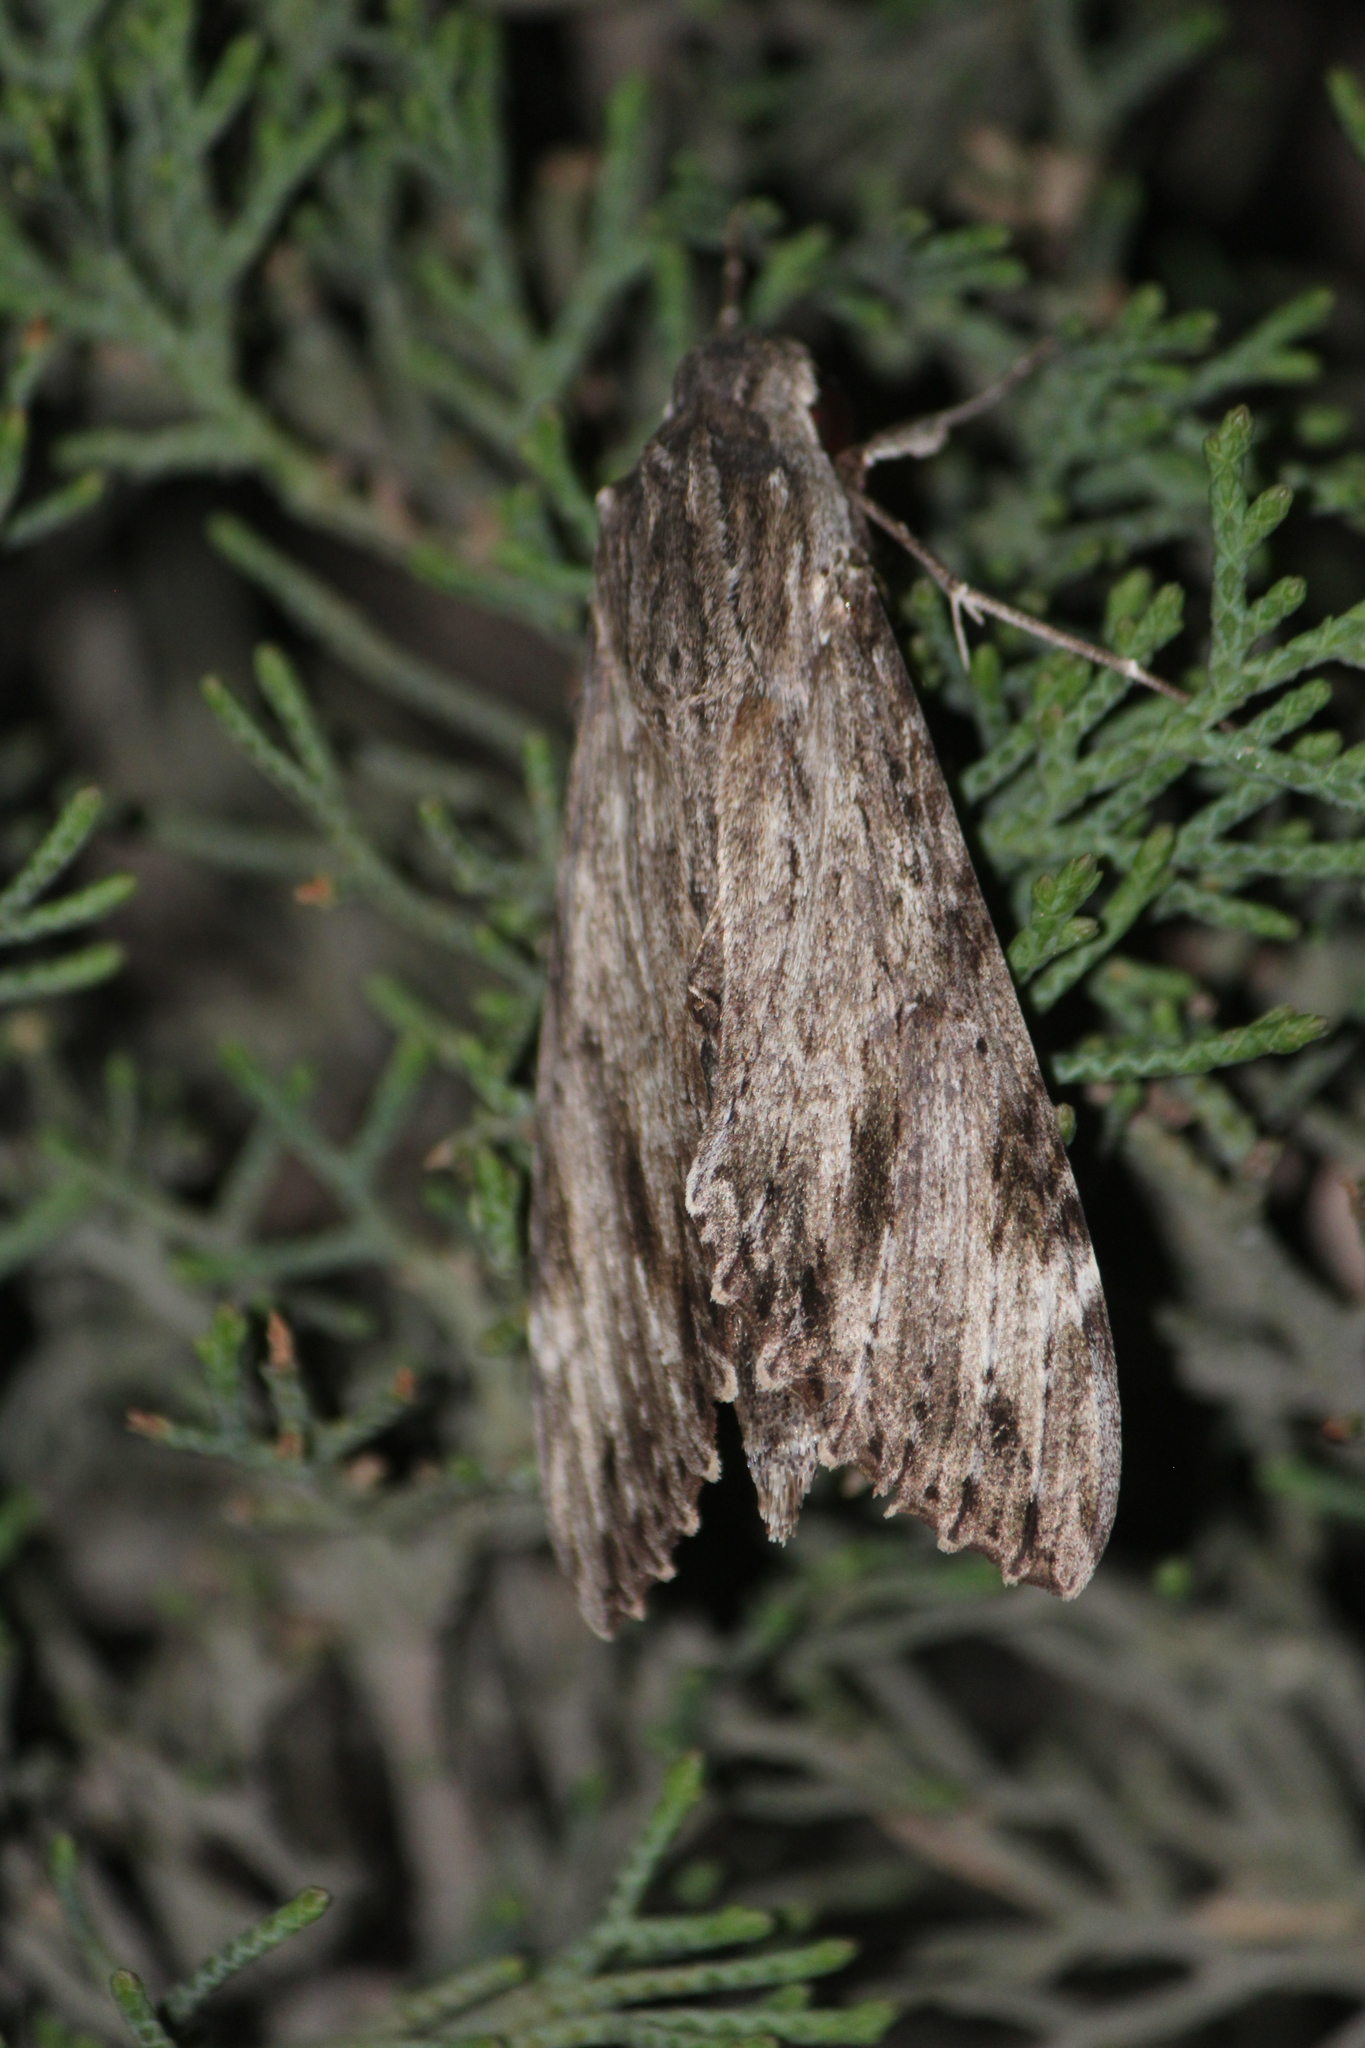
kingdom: Animalia
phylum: Arthropoda
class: Insecta
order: Lepidoptera
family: Sphingidae
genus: Erinnyis
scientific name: Erinnyis obscura
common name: Obscure sphinx
